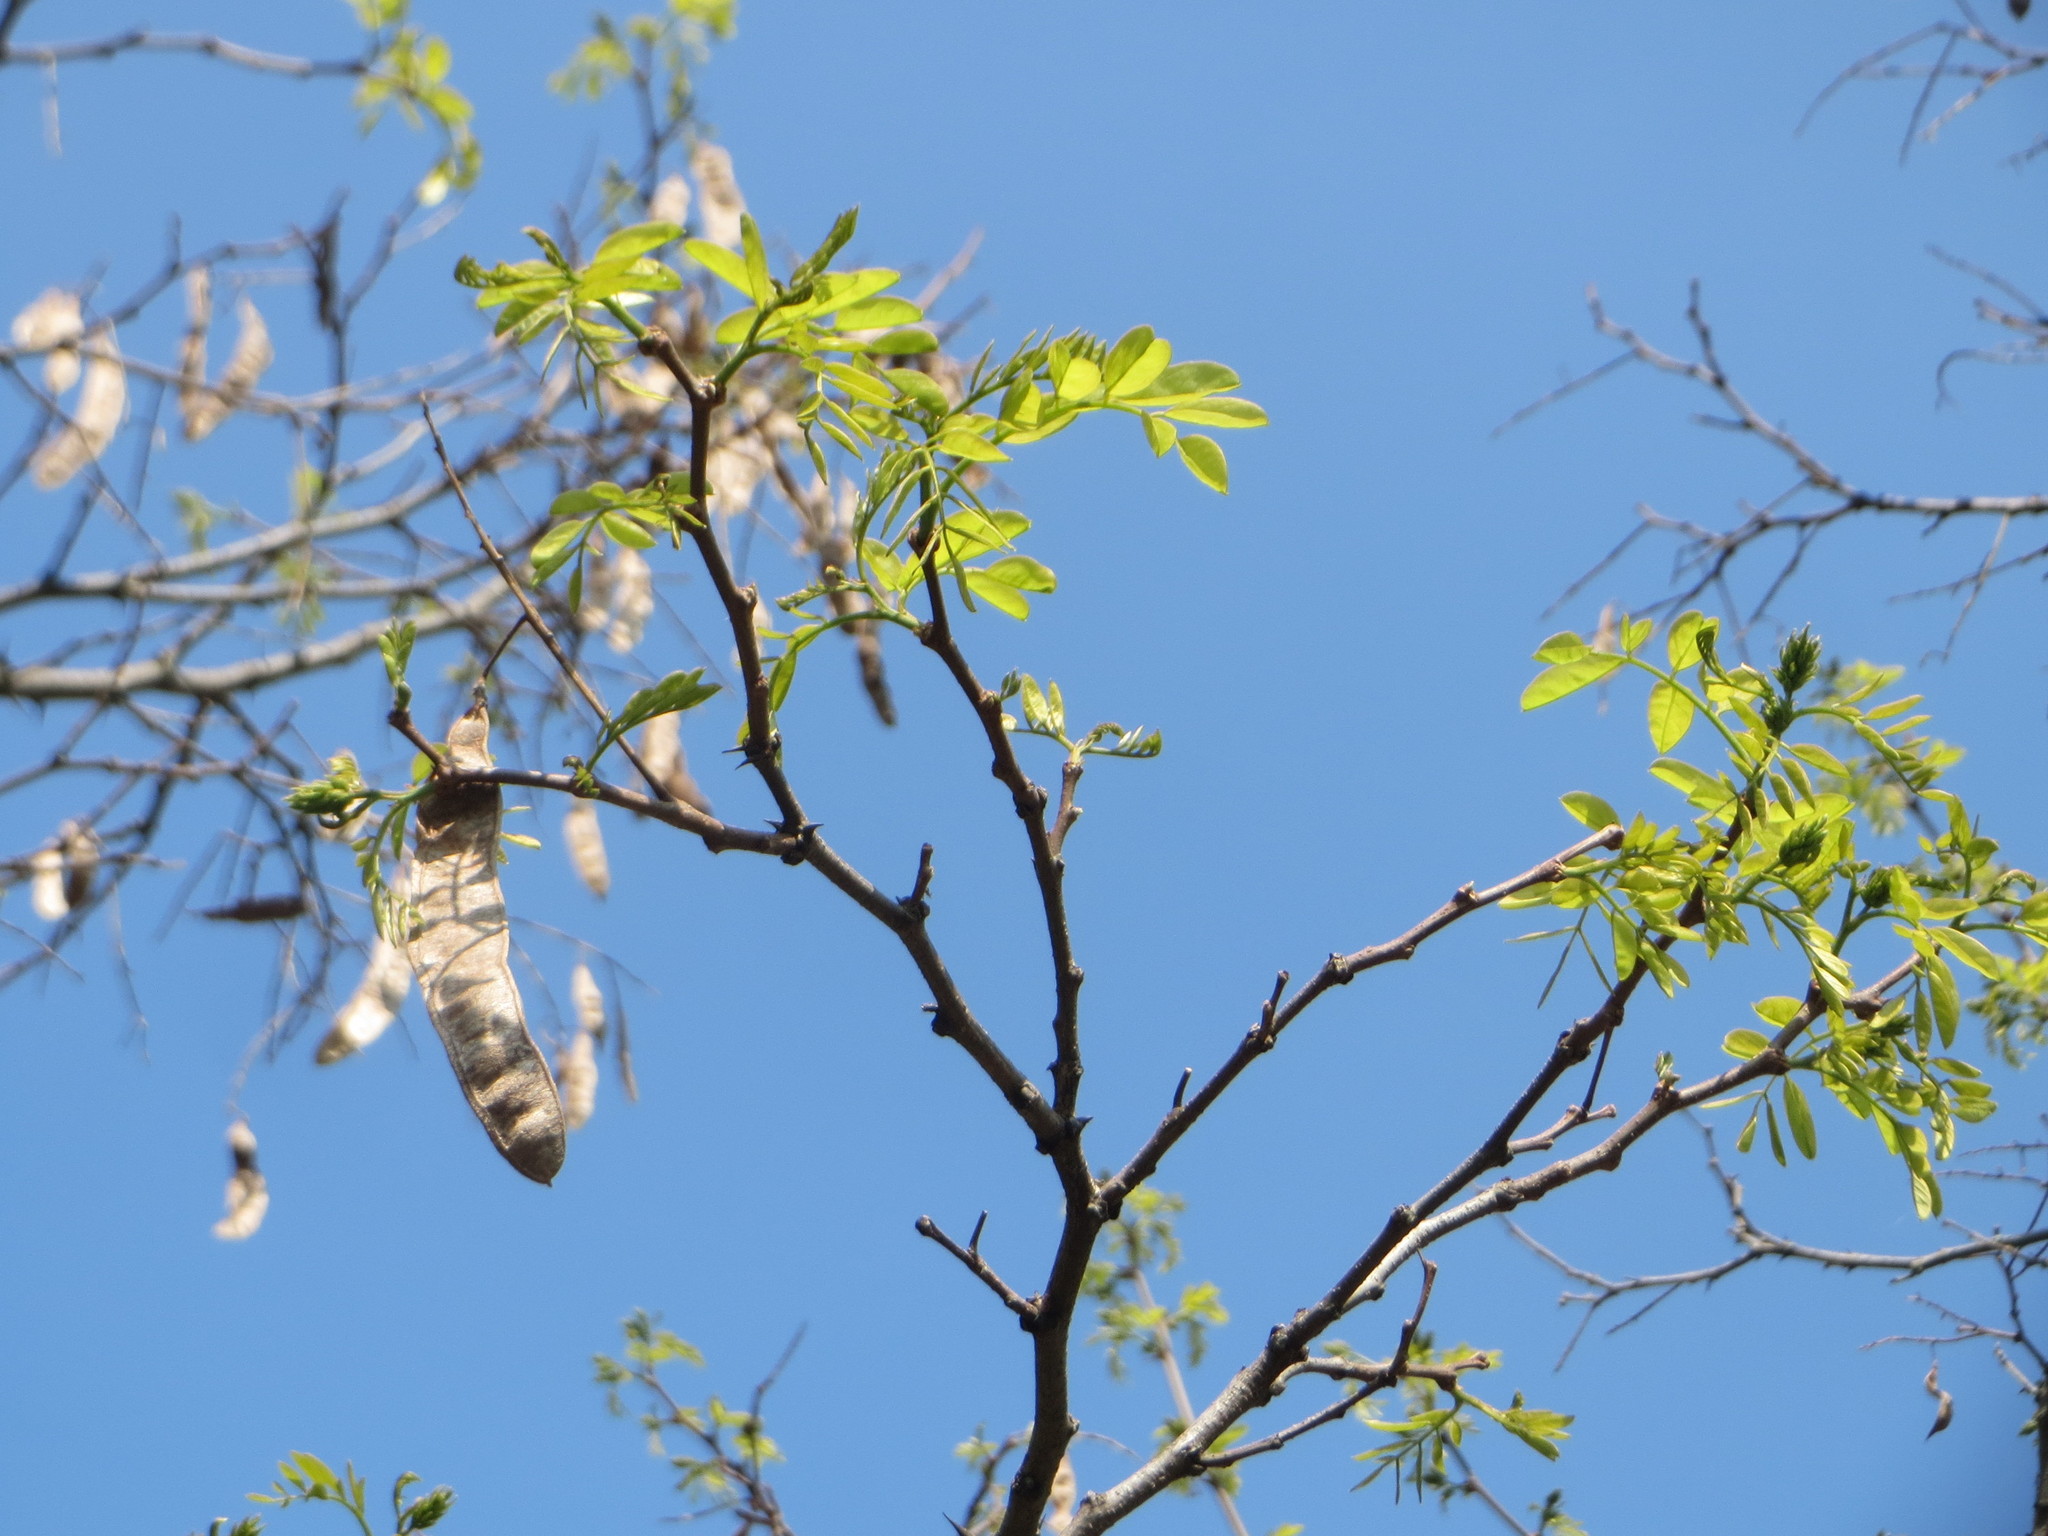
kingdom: Plantae
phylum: Tracheophyta
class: Magnoliopsida
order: Fabales
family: Fabaceae
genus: Robinia
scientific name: Robinia pseudoacacia
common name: Black locust
